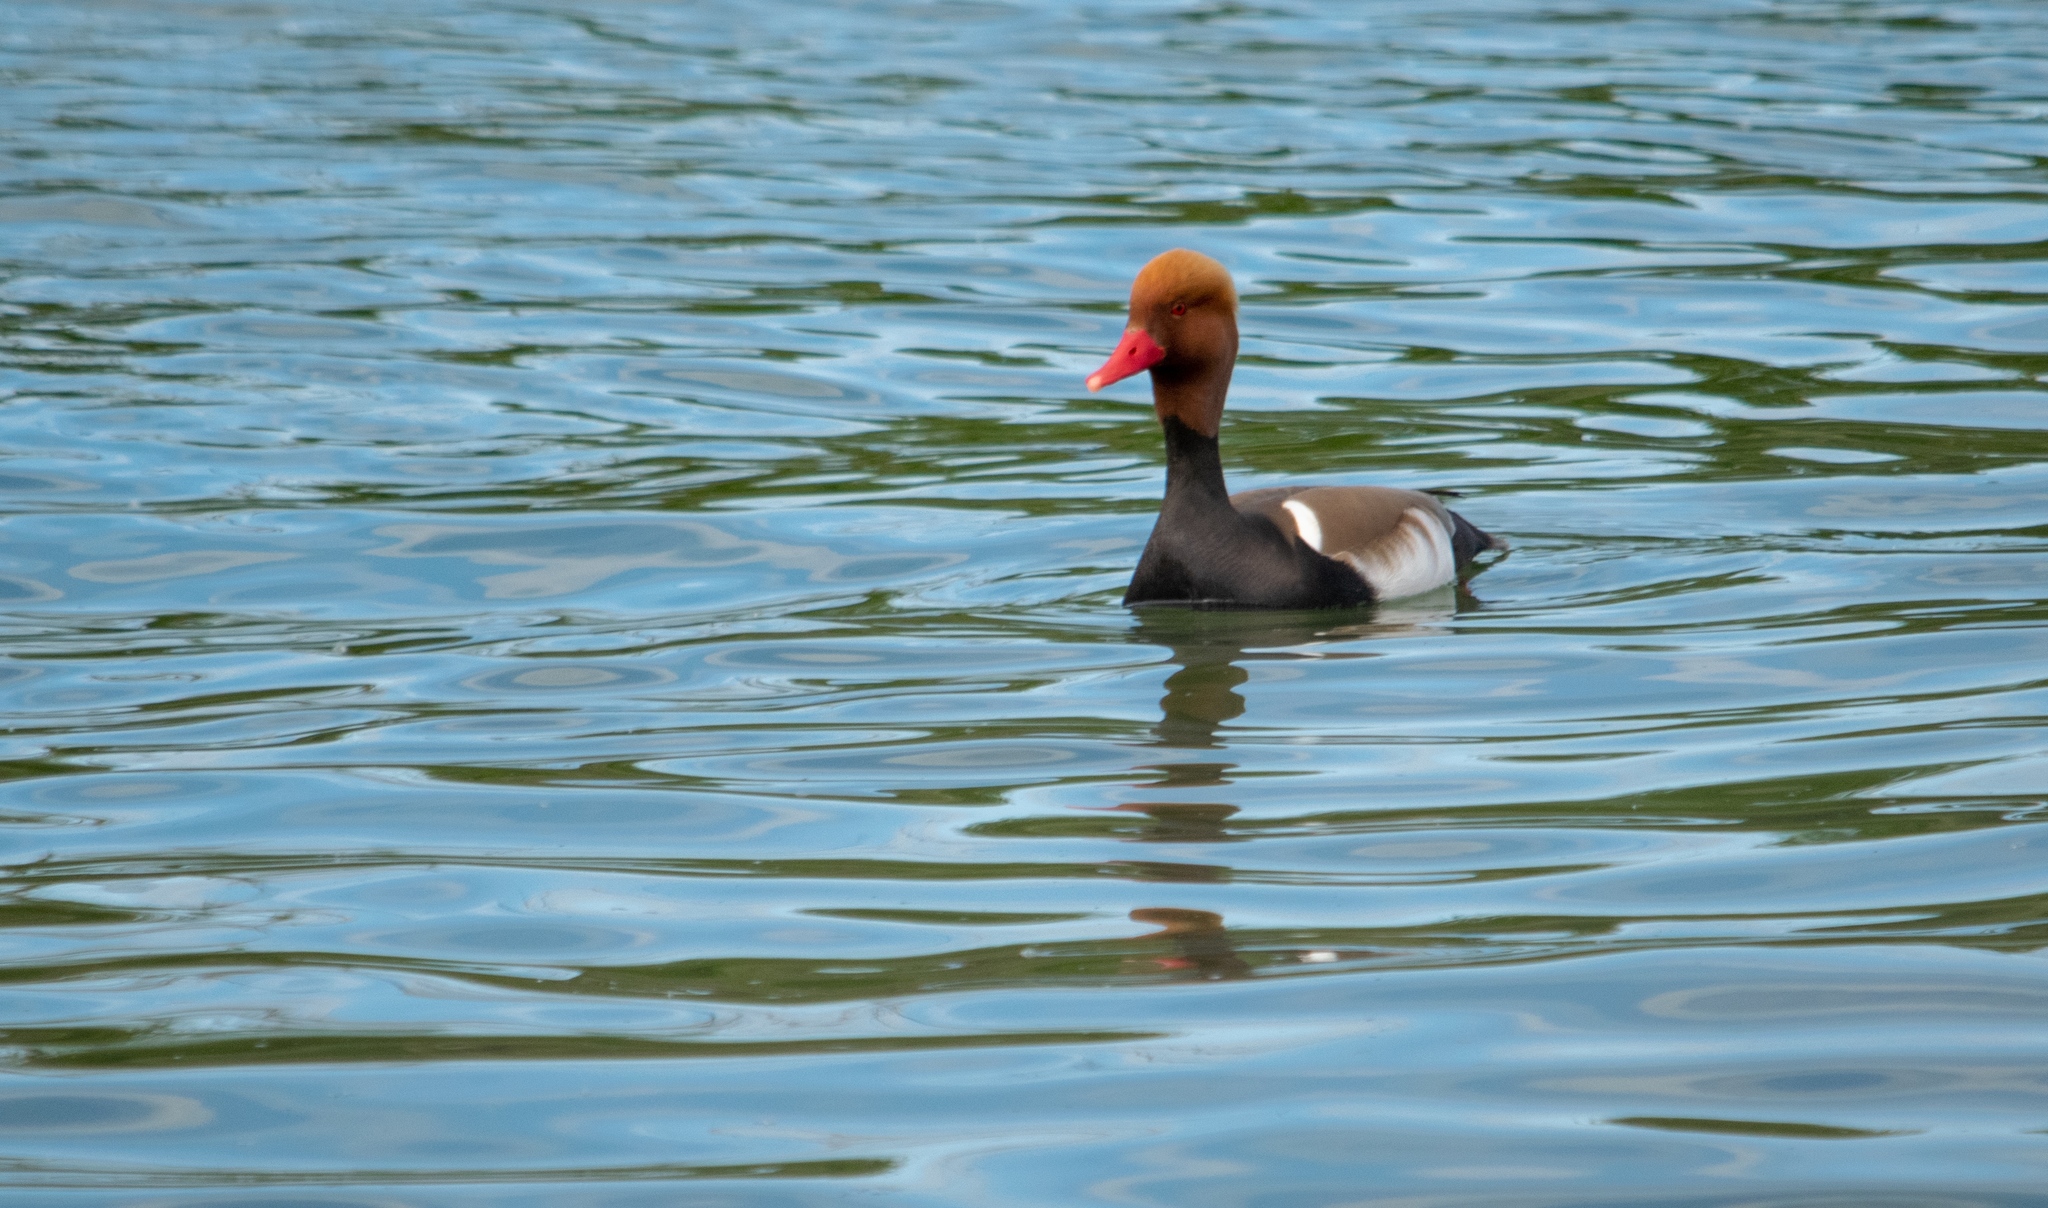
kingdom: Animalia
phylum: Chordata
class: Aves
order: Anseriformes
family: Anatidae
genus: Netta
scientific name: Netta rufina
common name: Red-crested pochard
